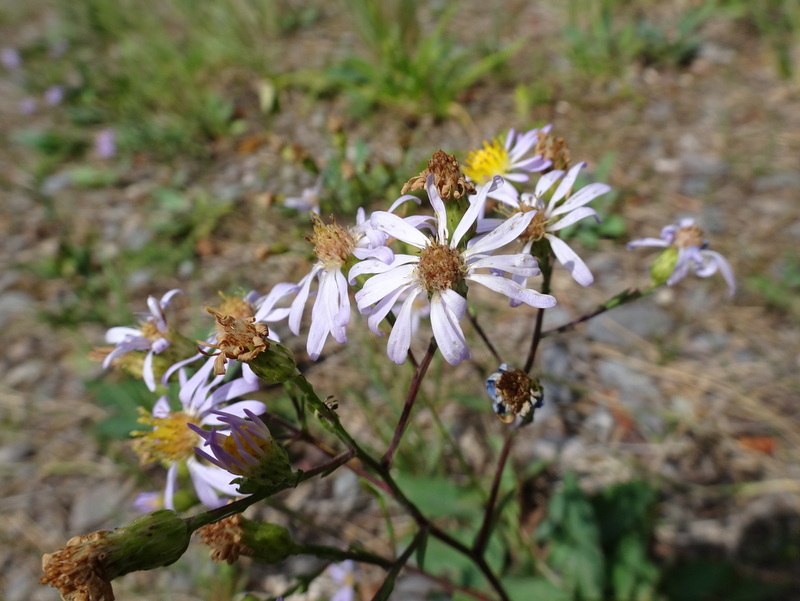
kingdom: Plantae
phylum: Tracheophyta
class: Magnoliopsida
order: Asterales
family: Asteraceae
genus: Symphyotrichum
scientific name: Symphyotrichum laeve
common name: Glaucous aster
